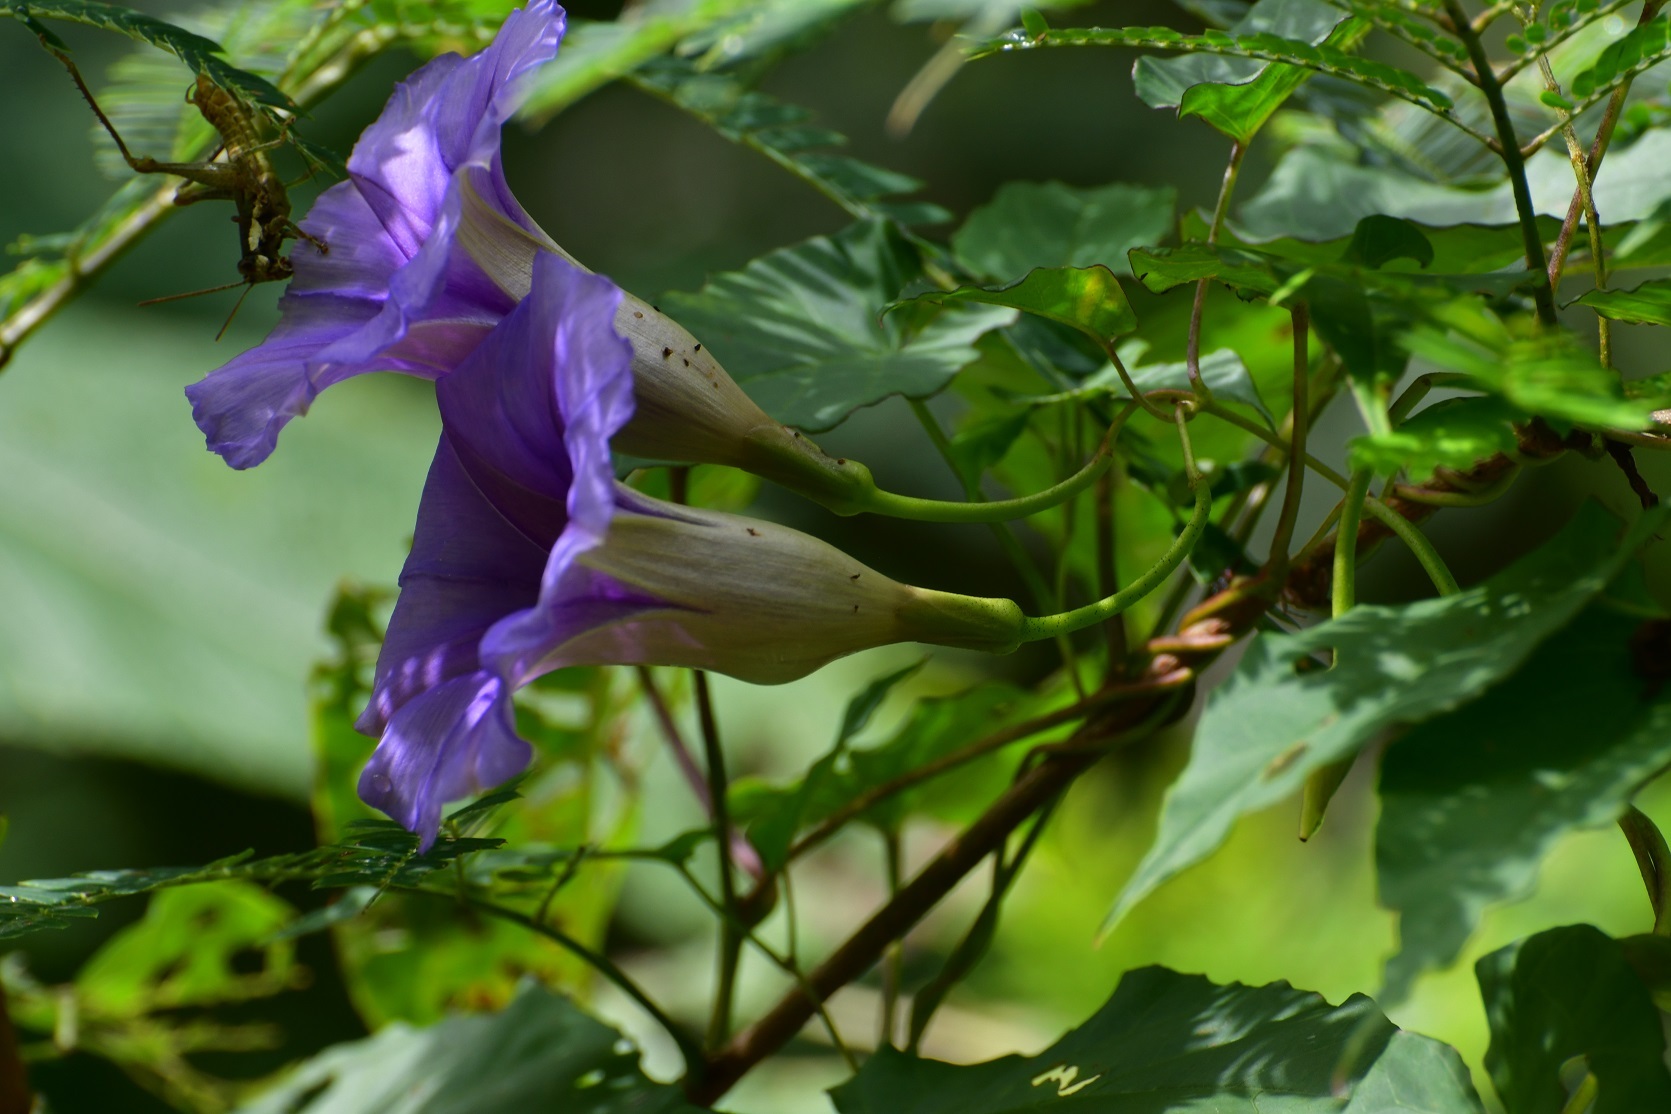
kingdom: Plantae
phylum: Tracheophyta
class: Magnoliopsida
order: Solanales
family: Convolvulaceae
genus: Ipomoea
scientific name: Ipomoea lindenii
